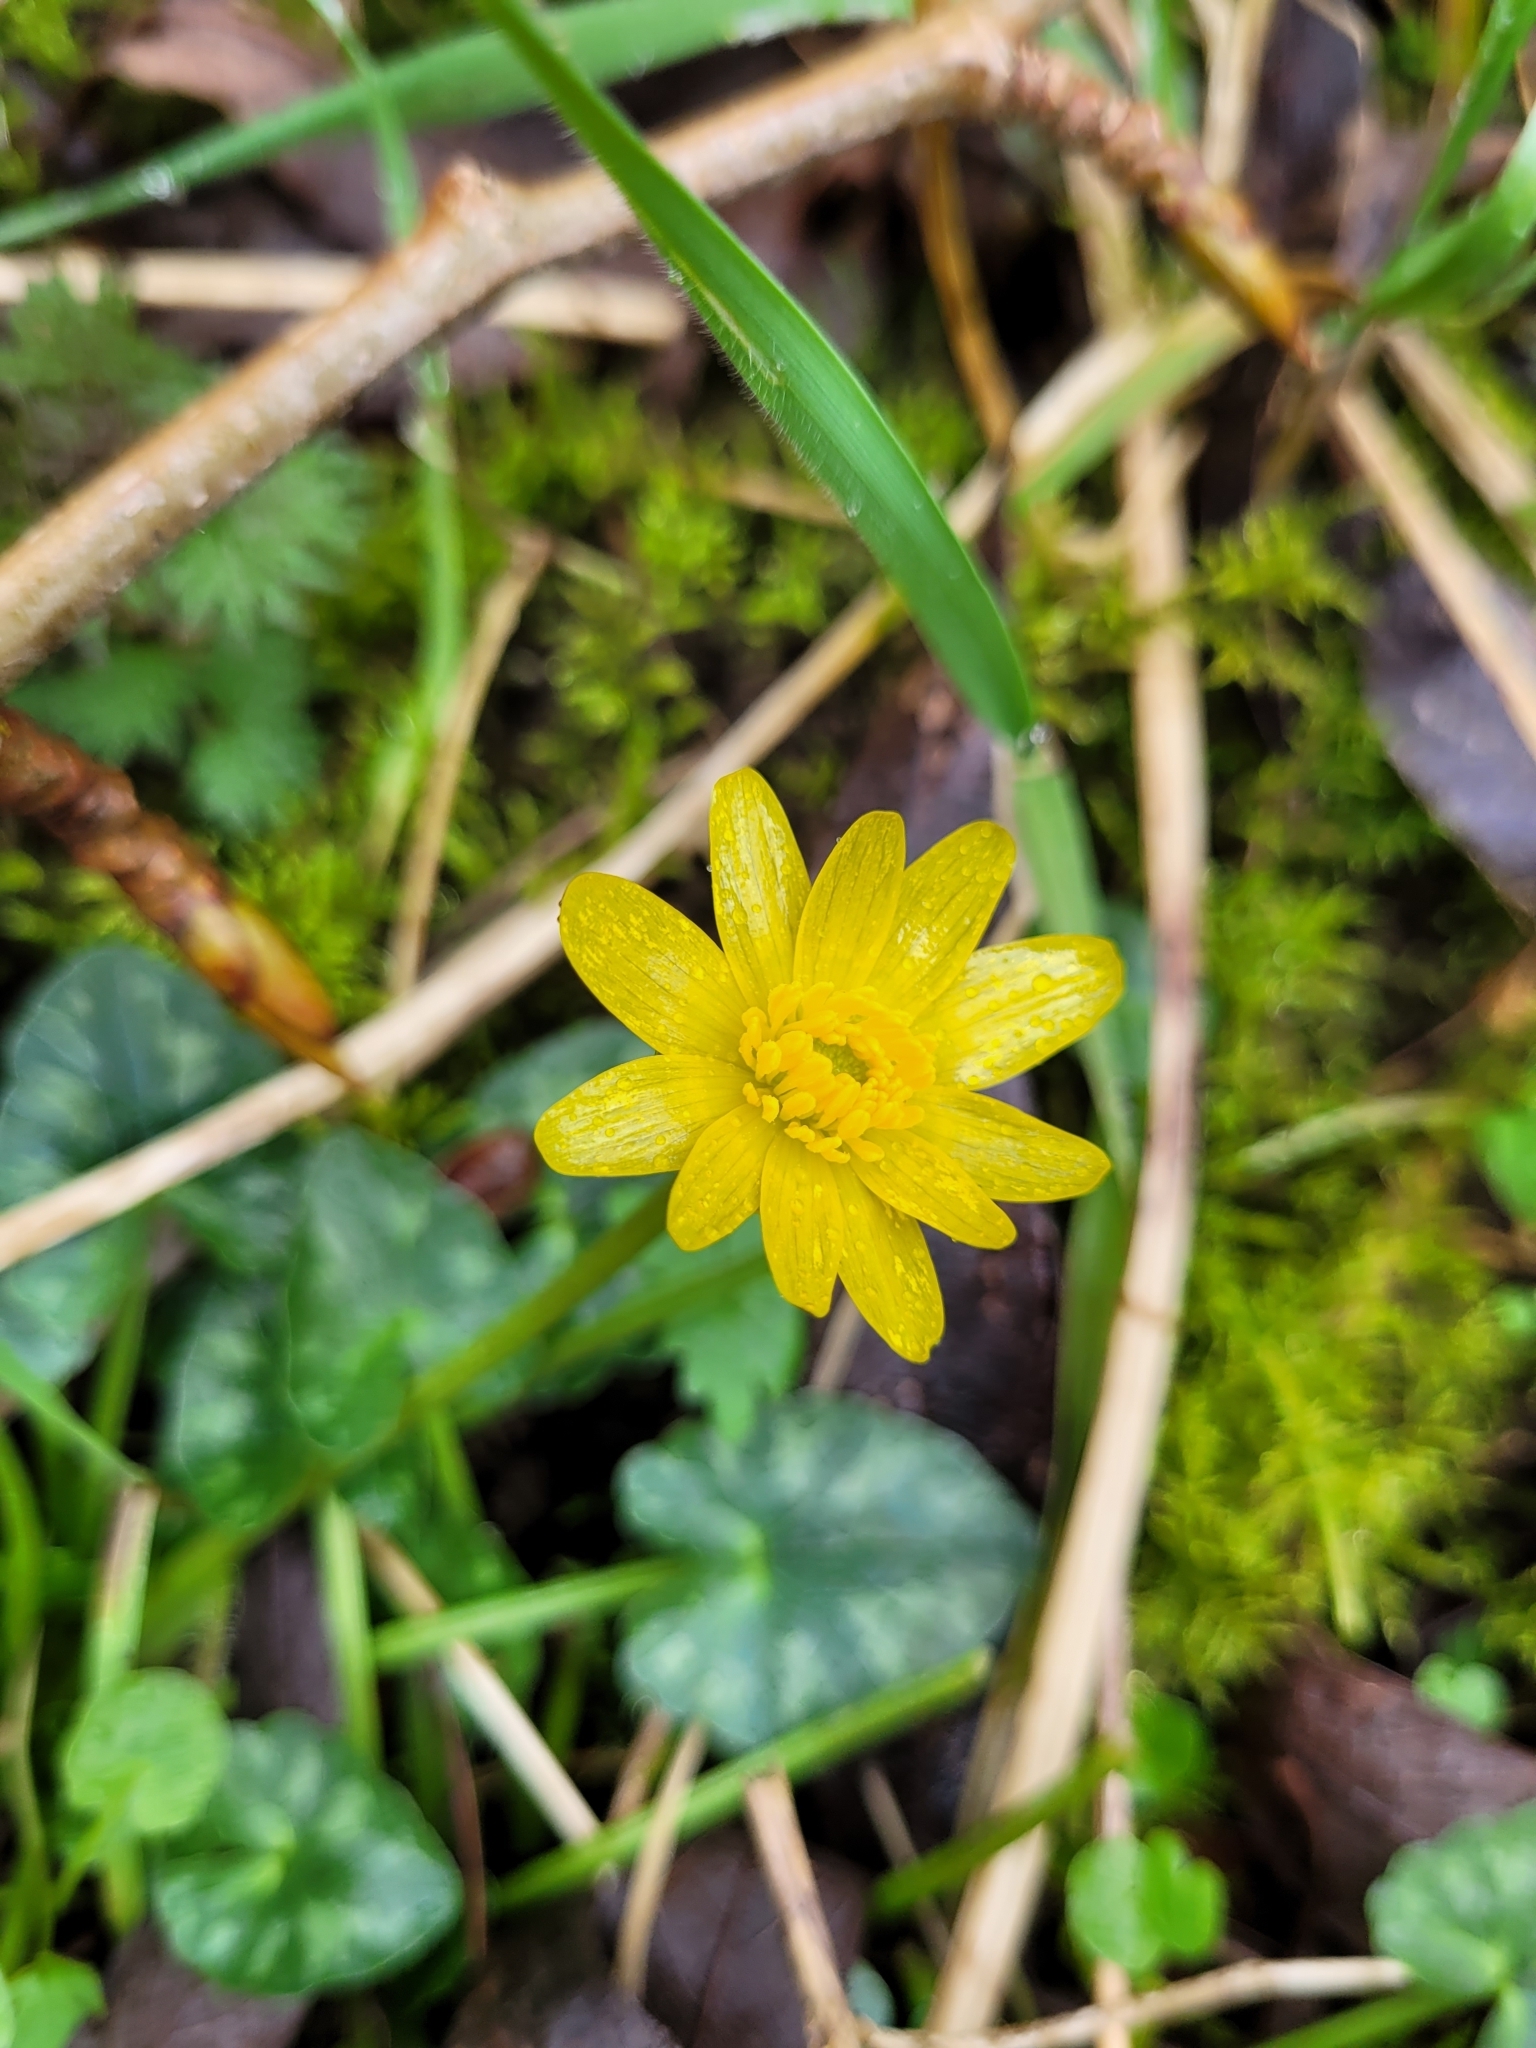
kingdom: Plantae
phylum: Tracheophyta
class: Magnoliopsida
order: Ranunculales
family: Ranunculaceae
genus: Ficaria
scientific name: Ficaria verna
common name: Lesser celandine
